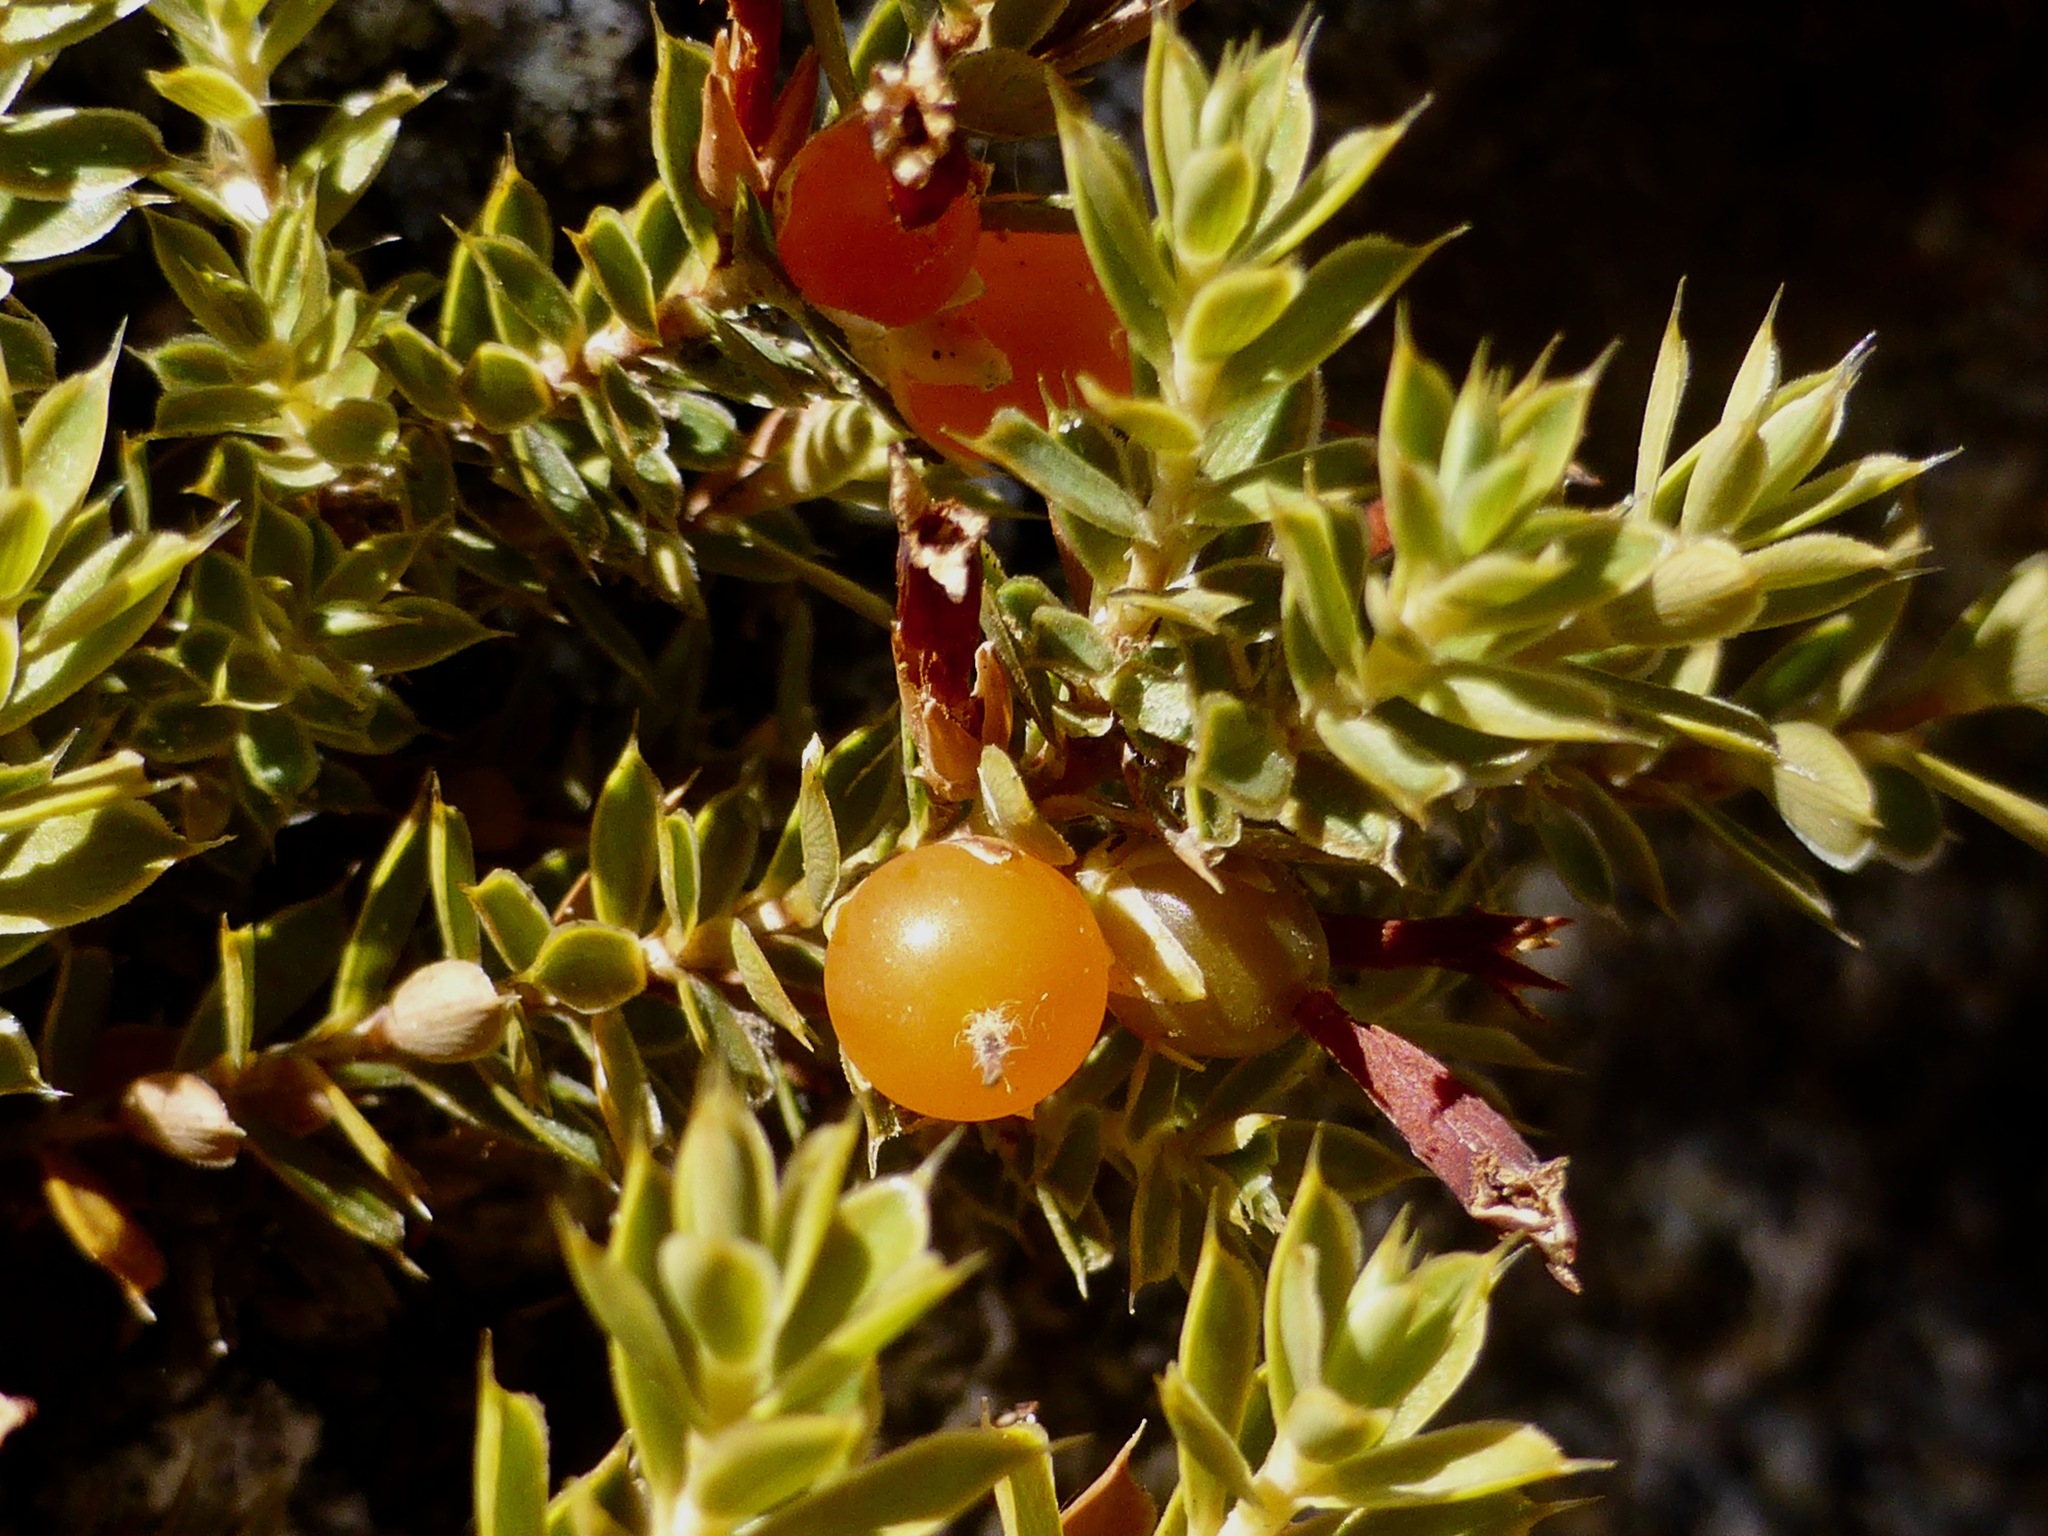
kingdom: Plantae
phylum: Tracheophyta
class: Magnoliopsida
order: Ericales
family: Ericaceae
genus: Styphelia
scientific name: Styphelia nesophila
